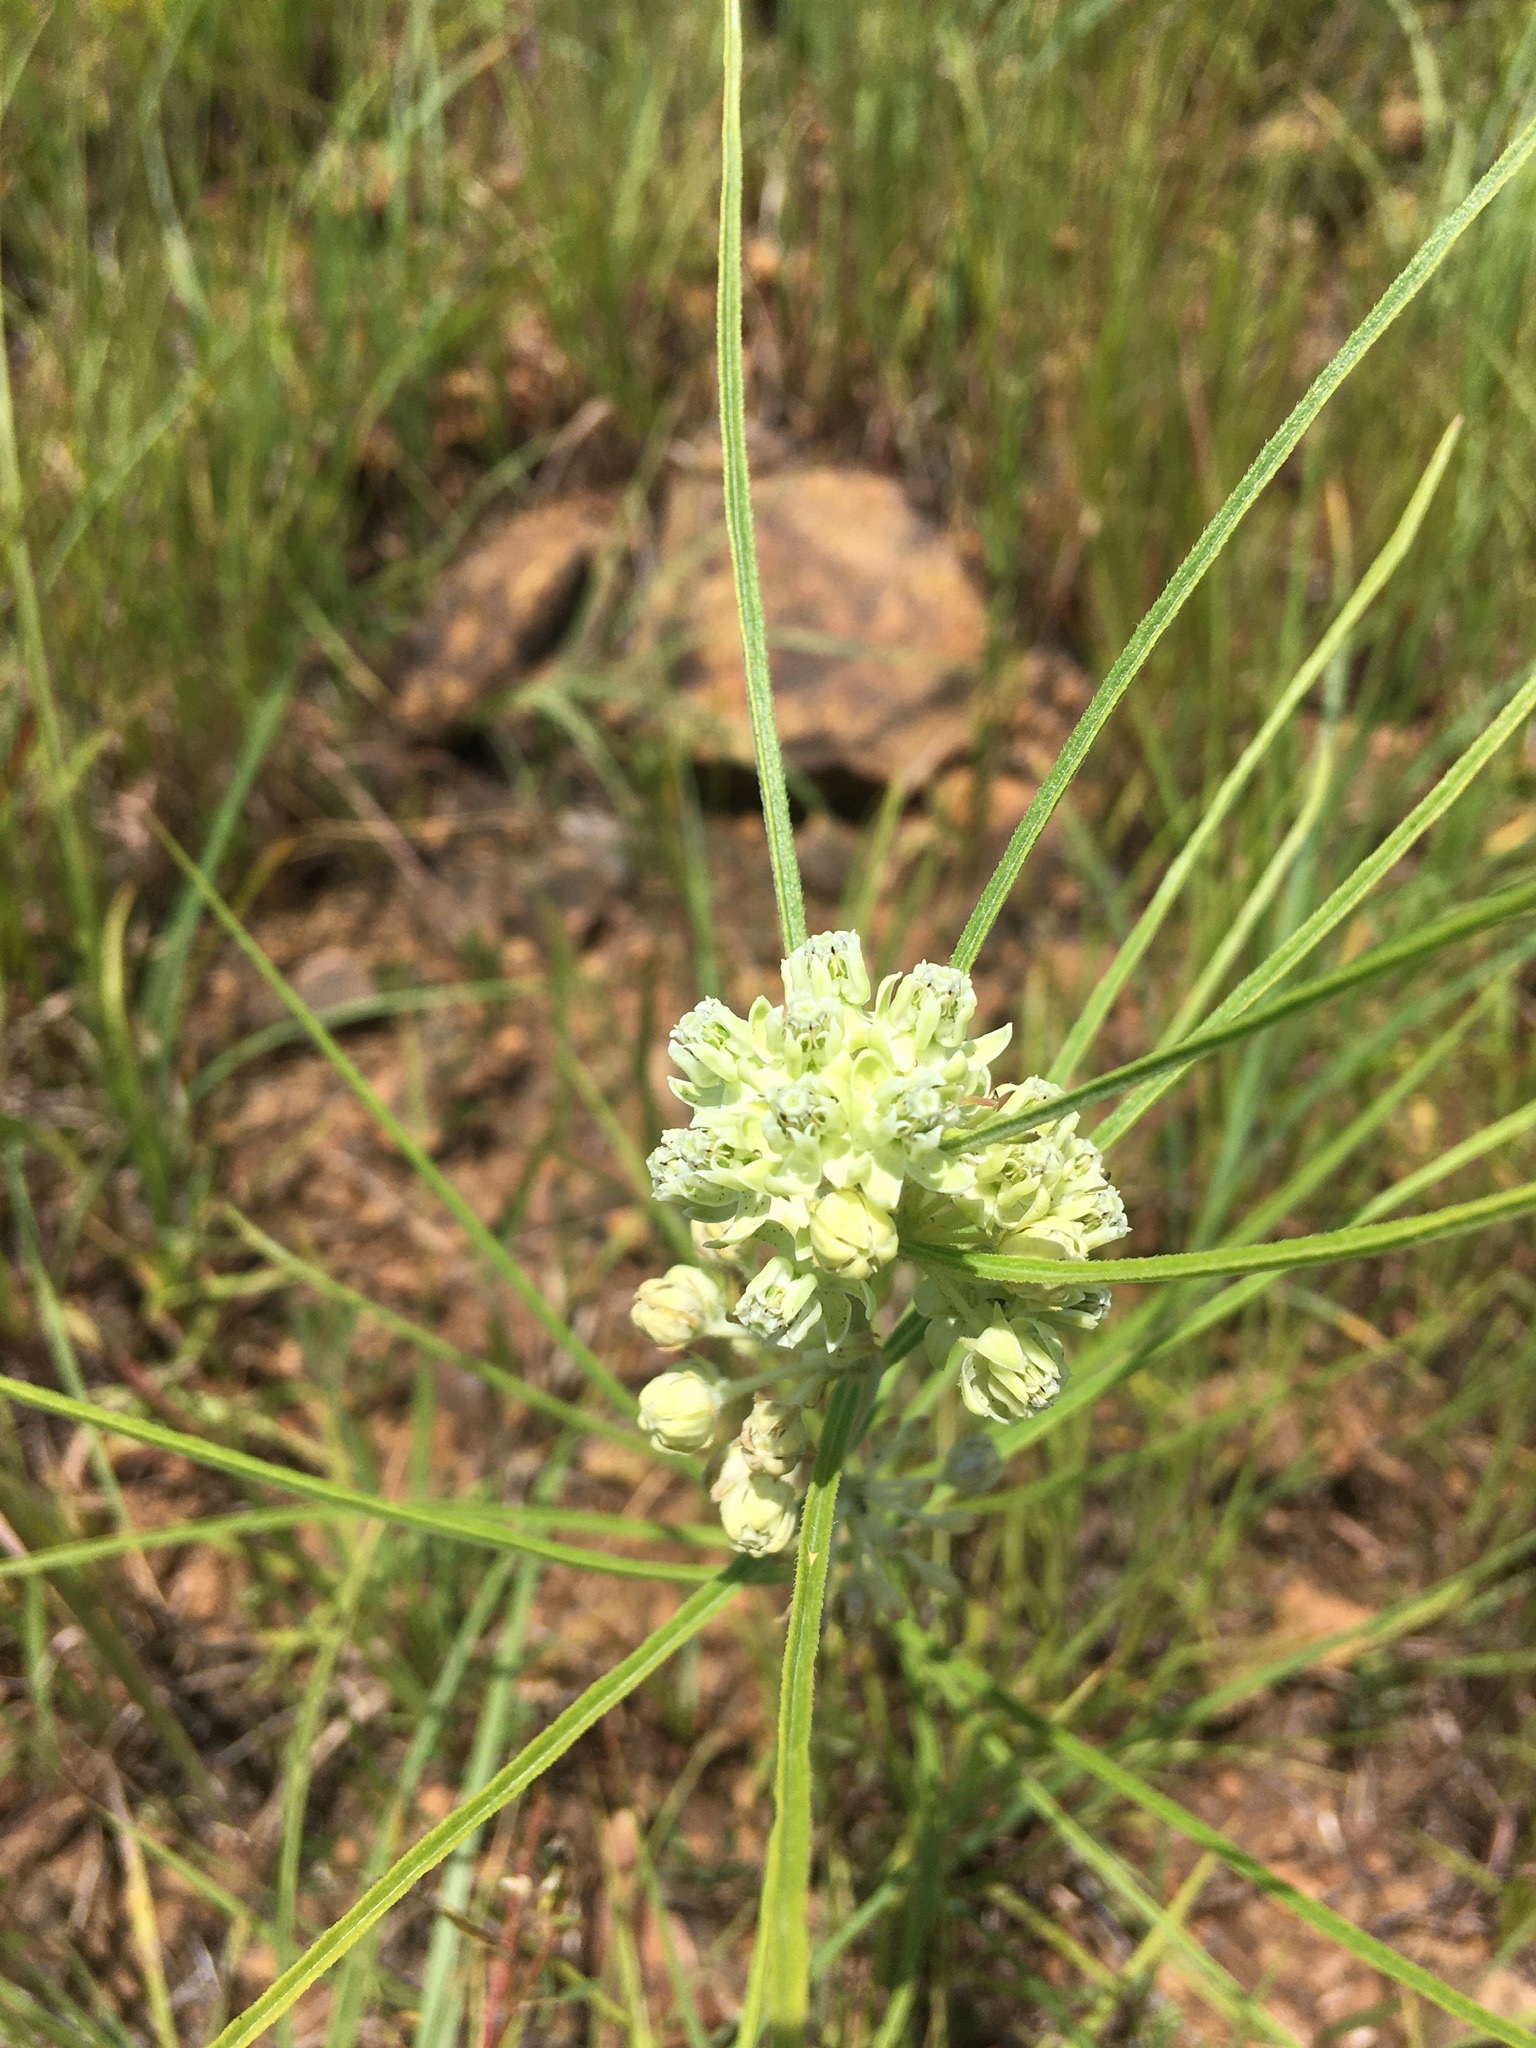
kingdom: Plantae
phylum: Tracheophyta
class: Magnoliopsida
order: Gentianales
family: Apocynaceae
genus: Asclepias
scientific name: Asclepias stenophylla
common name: Narrow-leaf milkweed
